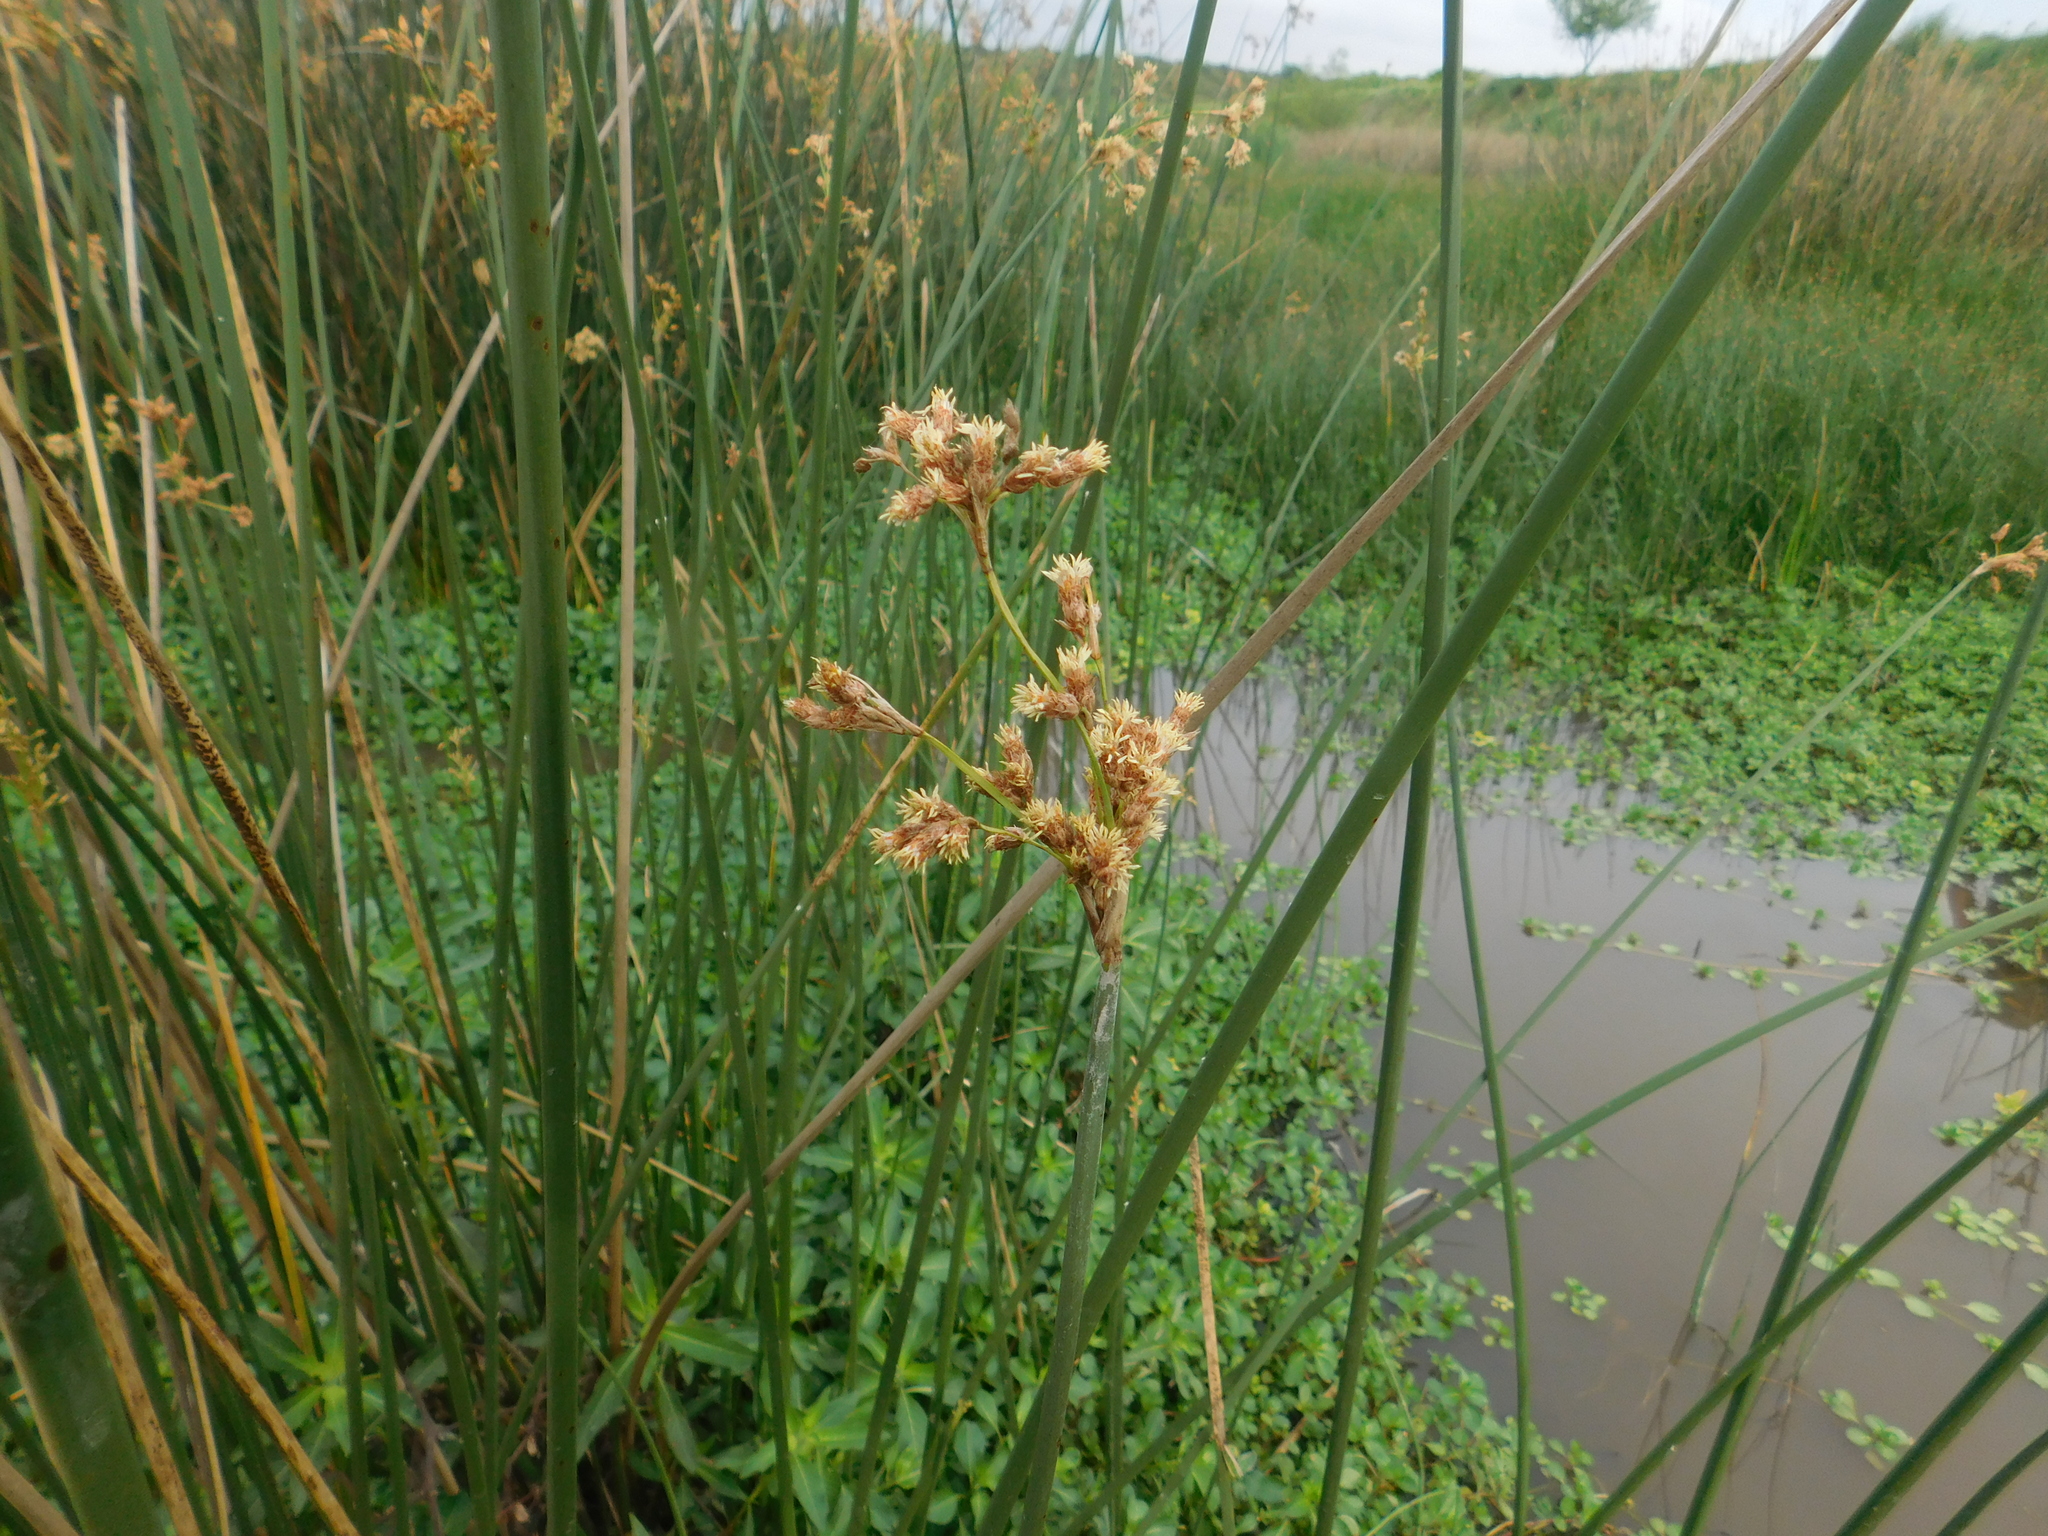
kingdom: Plantae
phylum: Tracheophyta
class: Liliopsida
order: Poales
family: Cyperaceae
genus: Schoenoplectus
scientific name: Schoenoplectus californicus
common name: California bulrush
